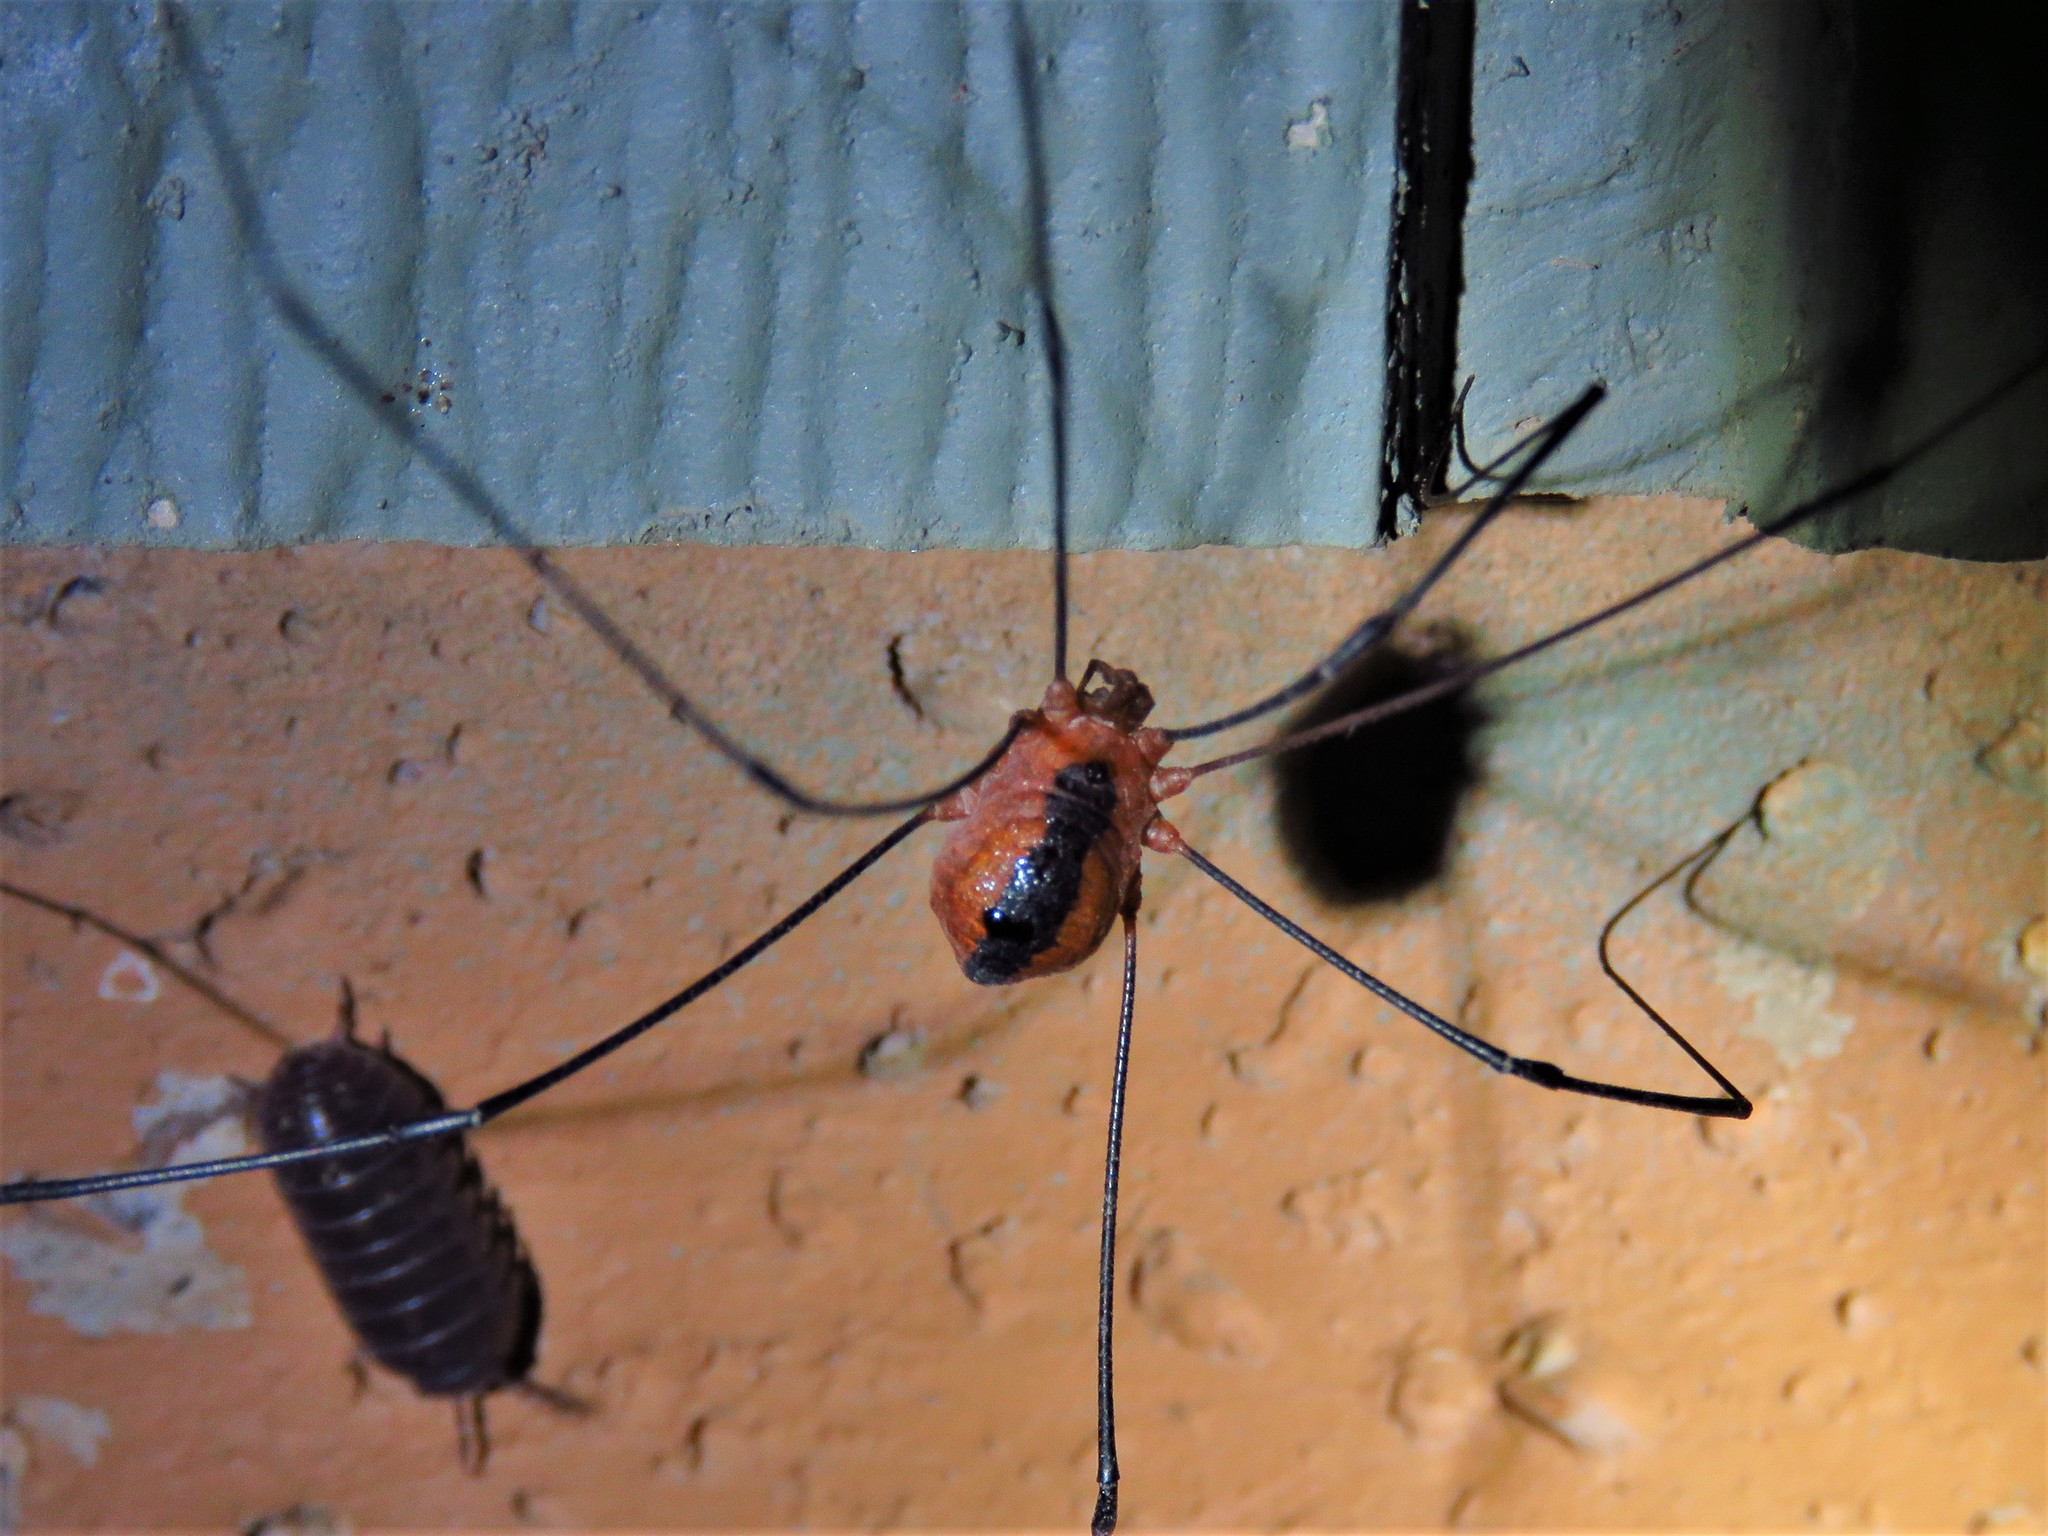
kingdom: Animalia
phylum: Arthropoda
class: Arachnida
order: Opiliones
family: Sclerosomatidae
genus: Leiobunum
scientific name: Leiobunum vittatum
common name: Eastern harvestman
